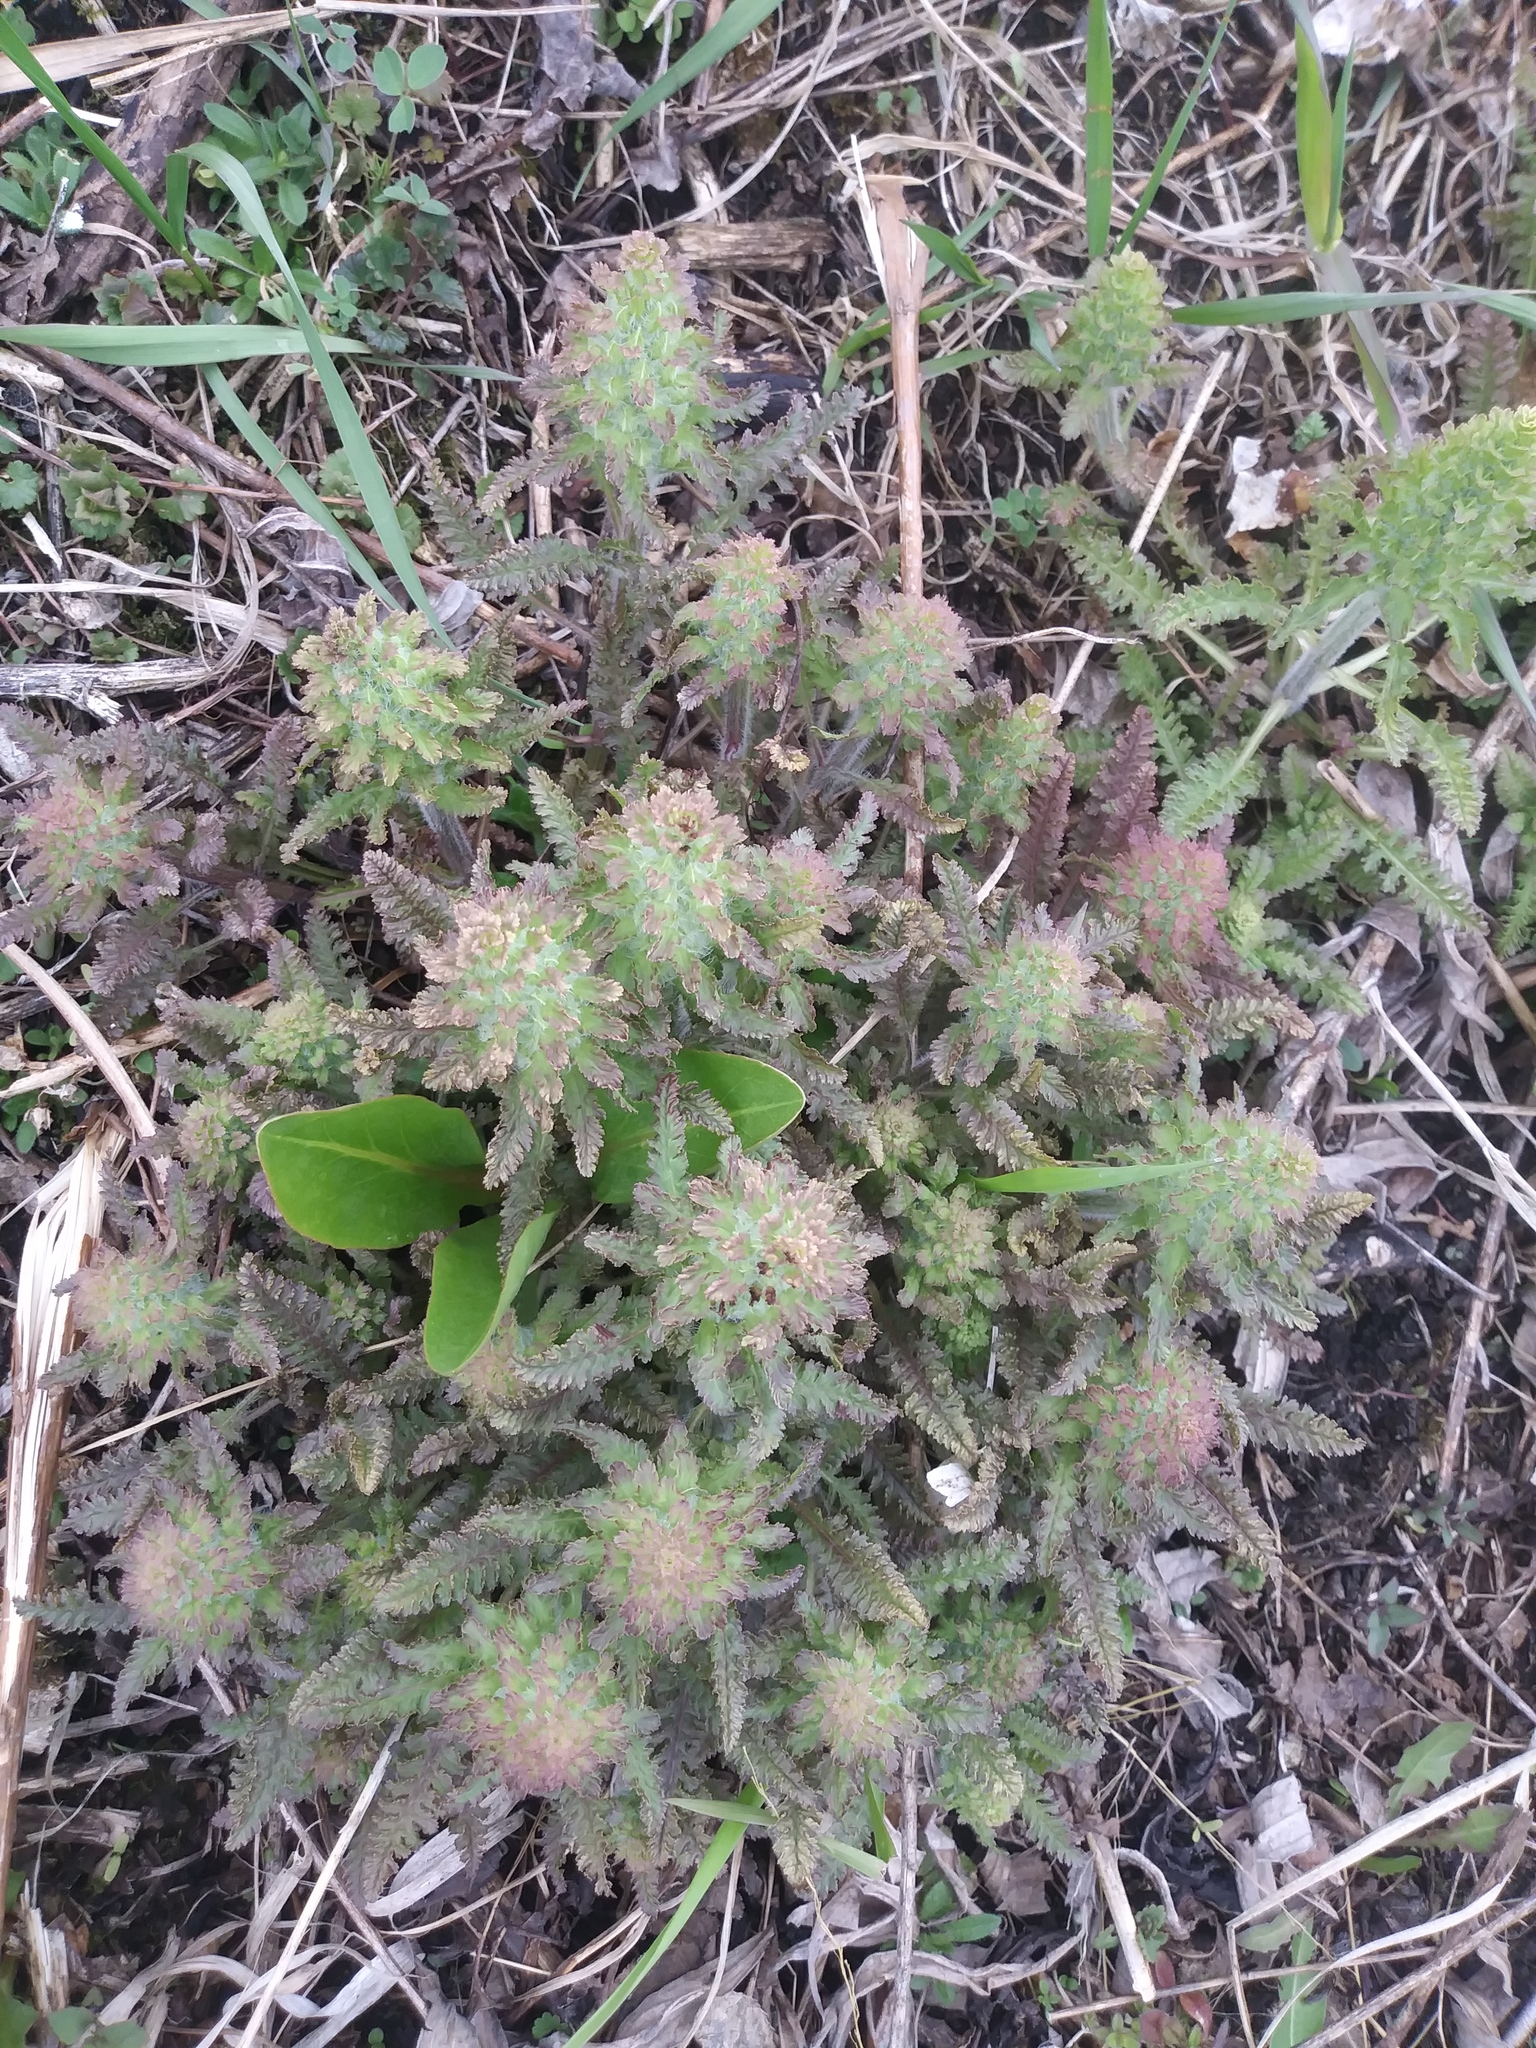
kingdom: Plantae
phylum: Tracheophyta
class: Magnoliopsida
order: Lamiales
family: Orobanchaceae
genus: Pedicularis
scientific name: Pedicularis canadensis
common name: Early lousewort
